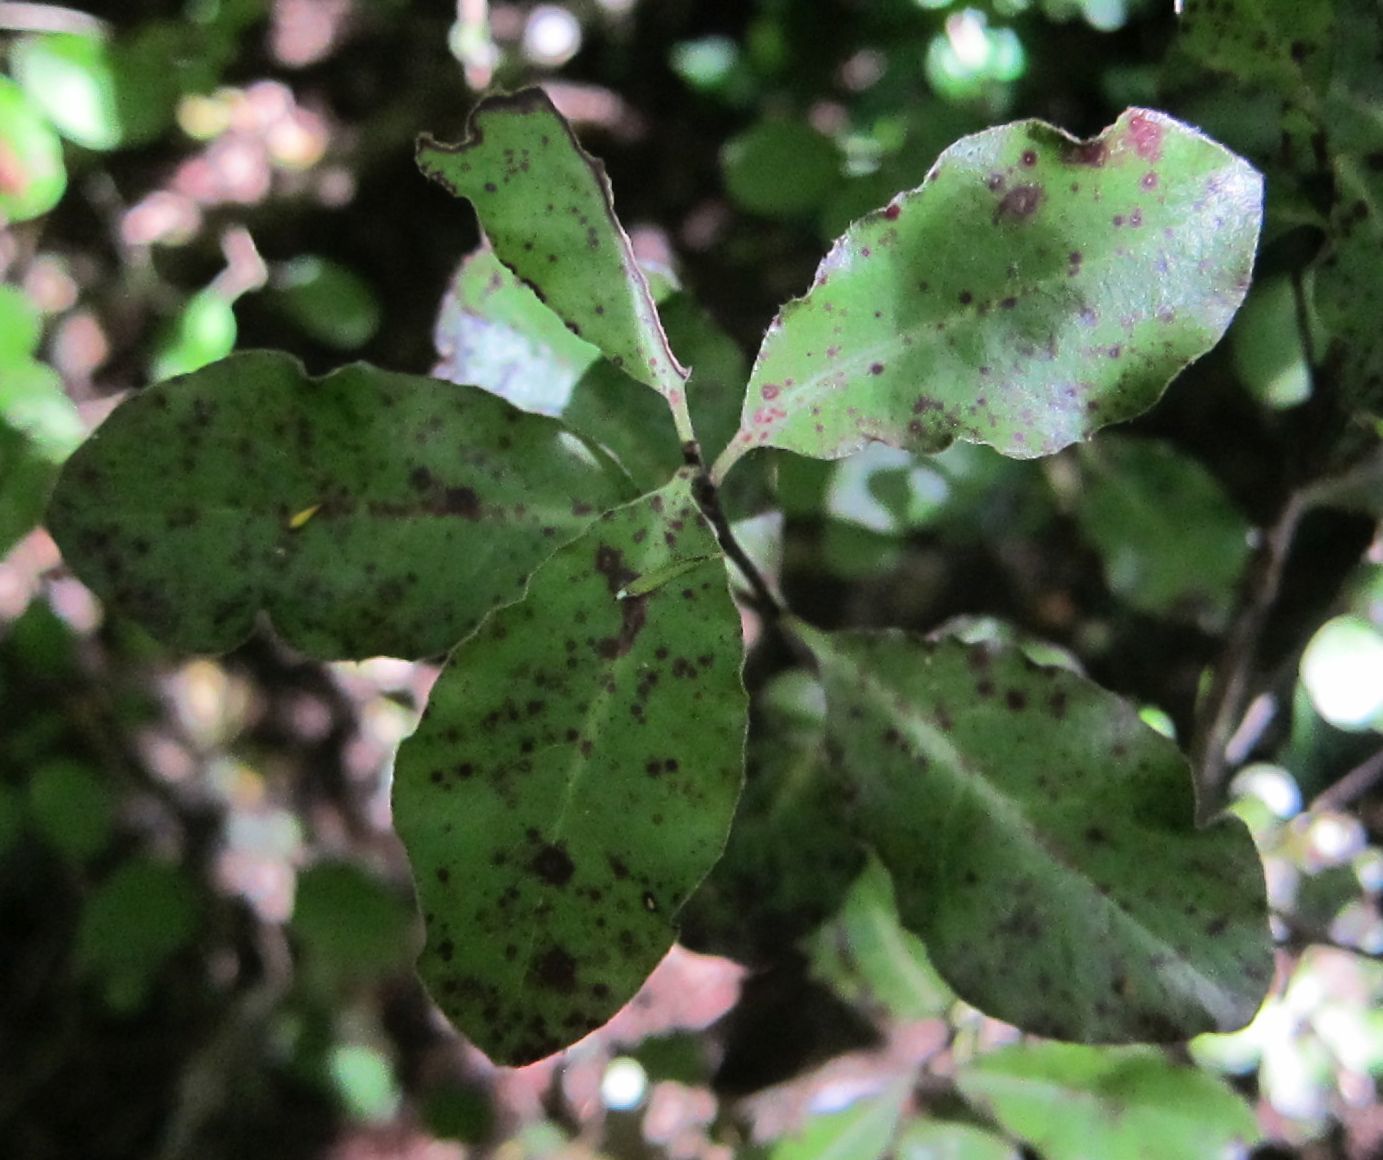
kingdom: Plantae
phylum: Tracheophyta
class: Magnoliopsida
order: Apiales
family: Pittosporaceae
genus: Pittosporum
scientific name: Pittosporum tenuifolium
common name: Kohuhu
